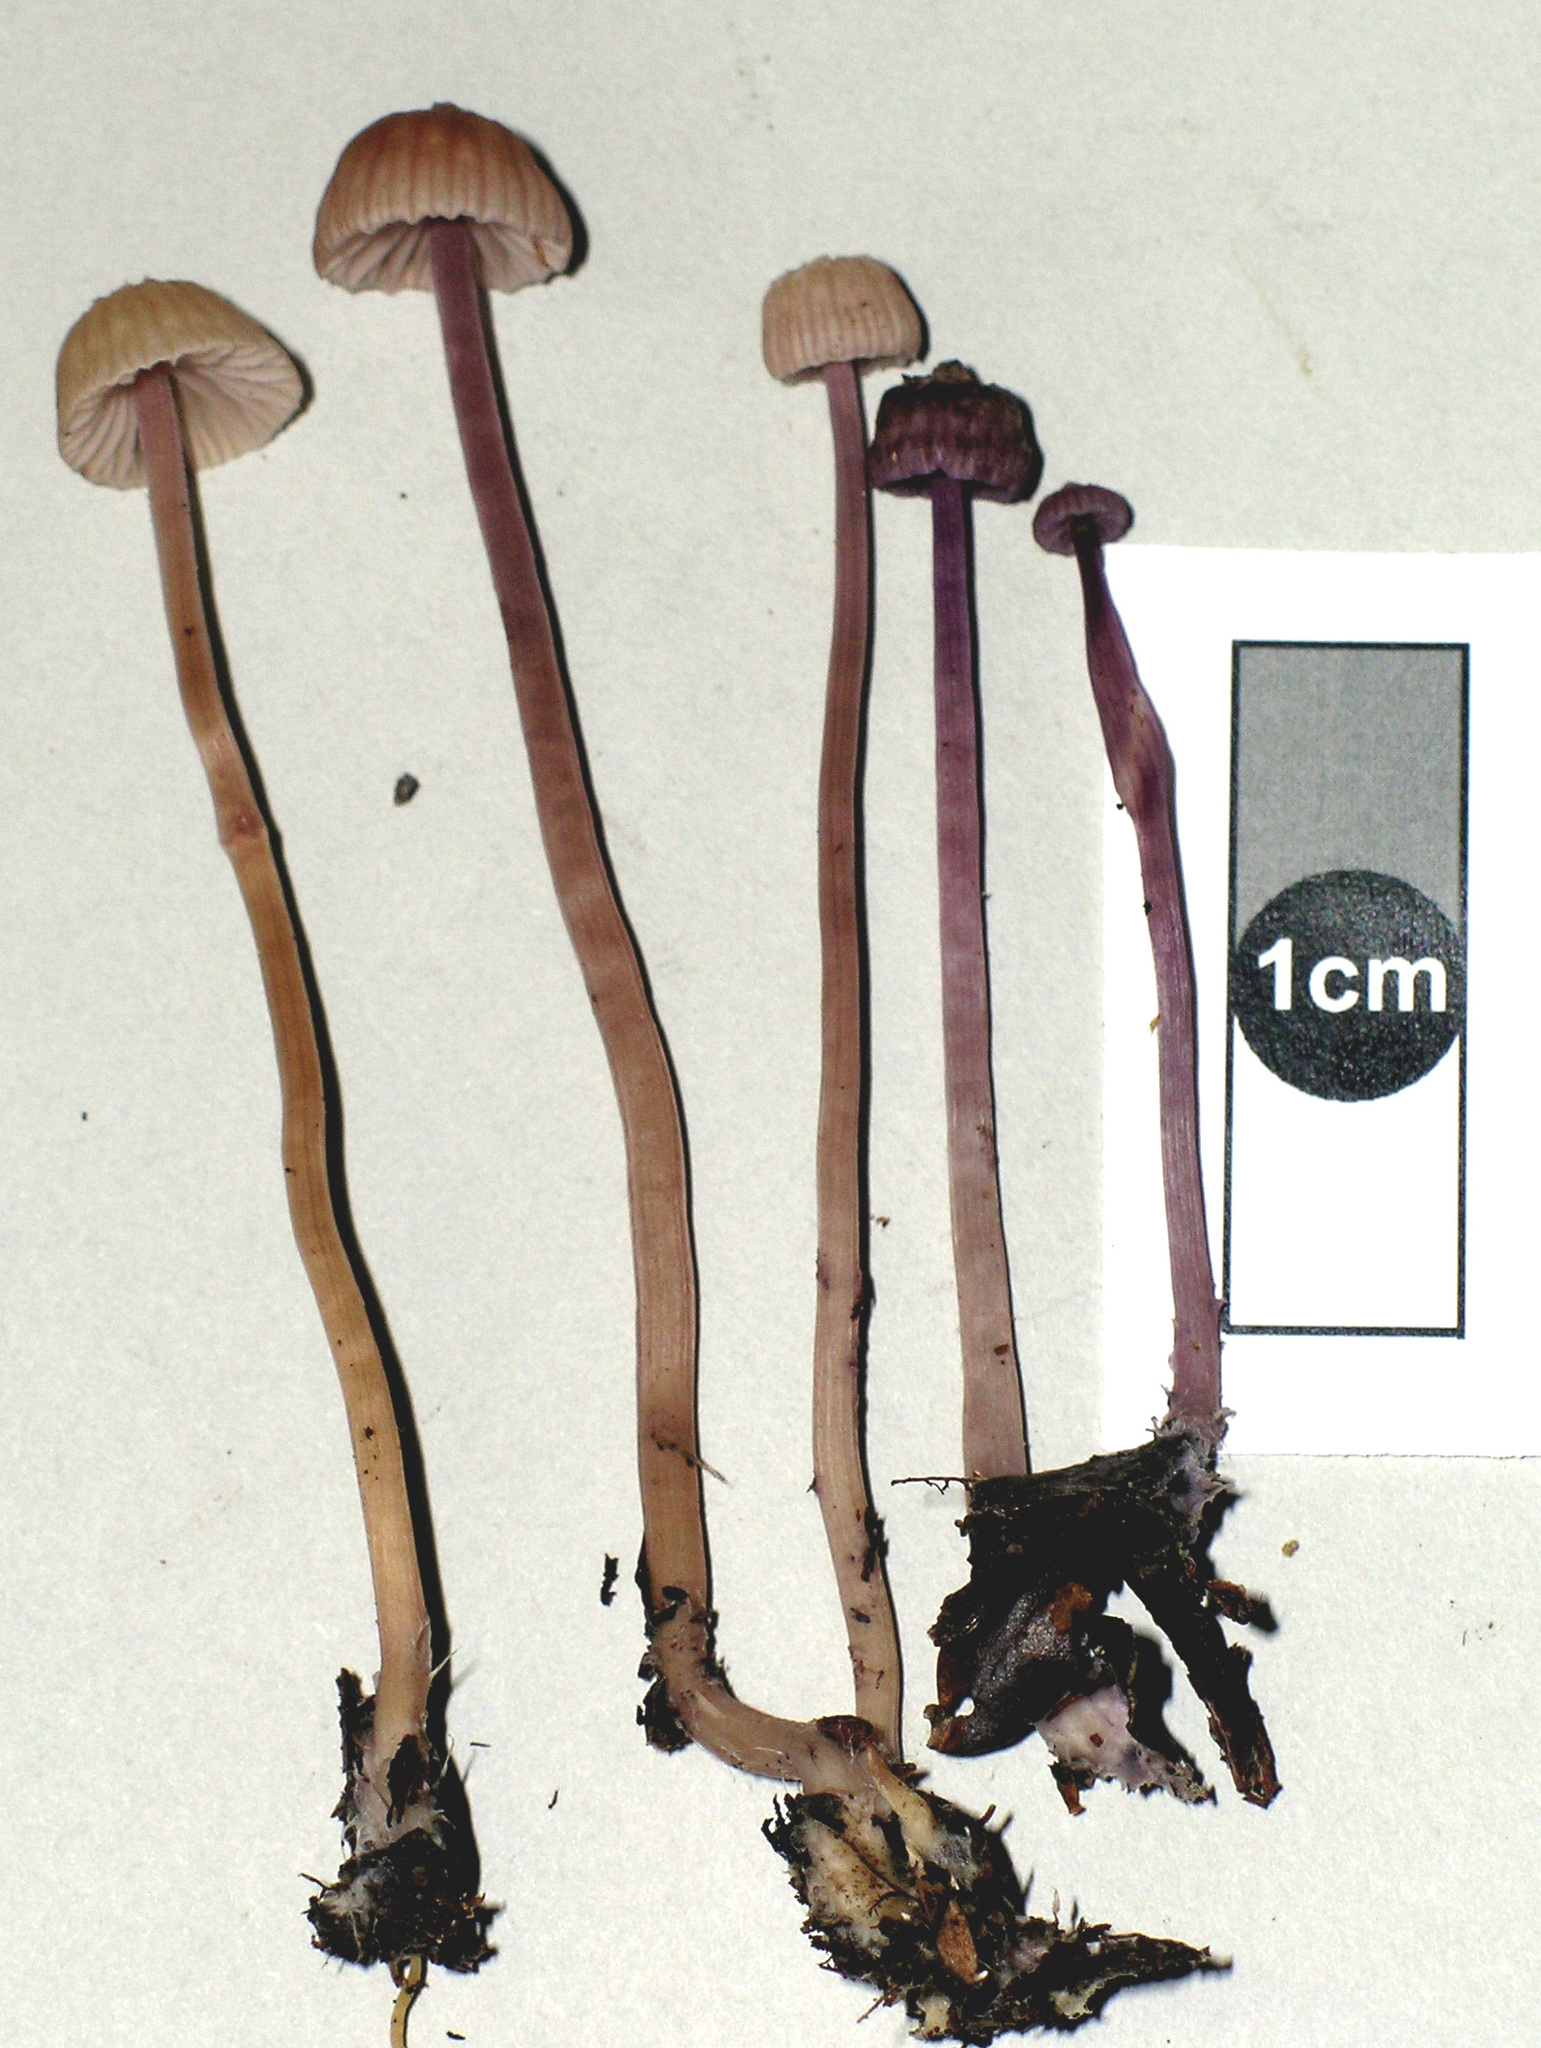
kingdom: Fungi
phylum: Basidiomycota
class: Agaricomycetes
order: Agaricales
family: Hydnangiaceae
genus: Laccaria
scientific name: Laccaria masoniae
